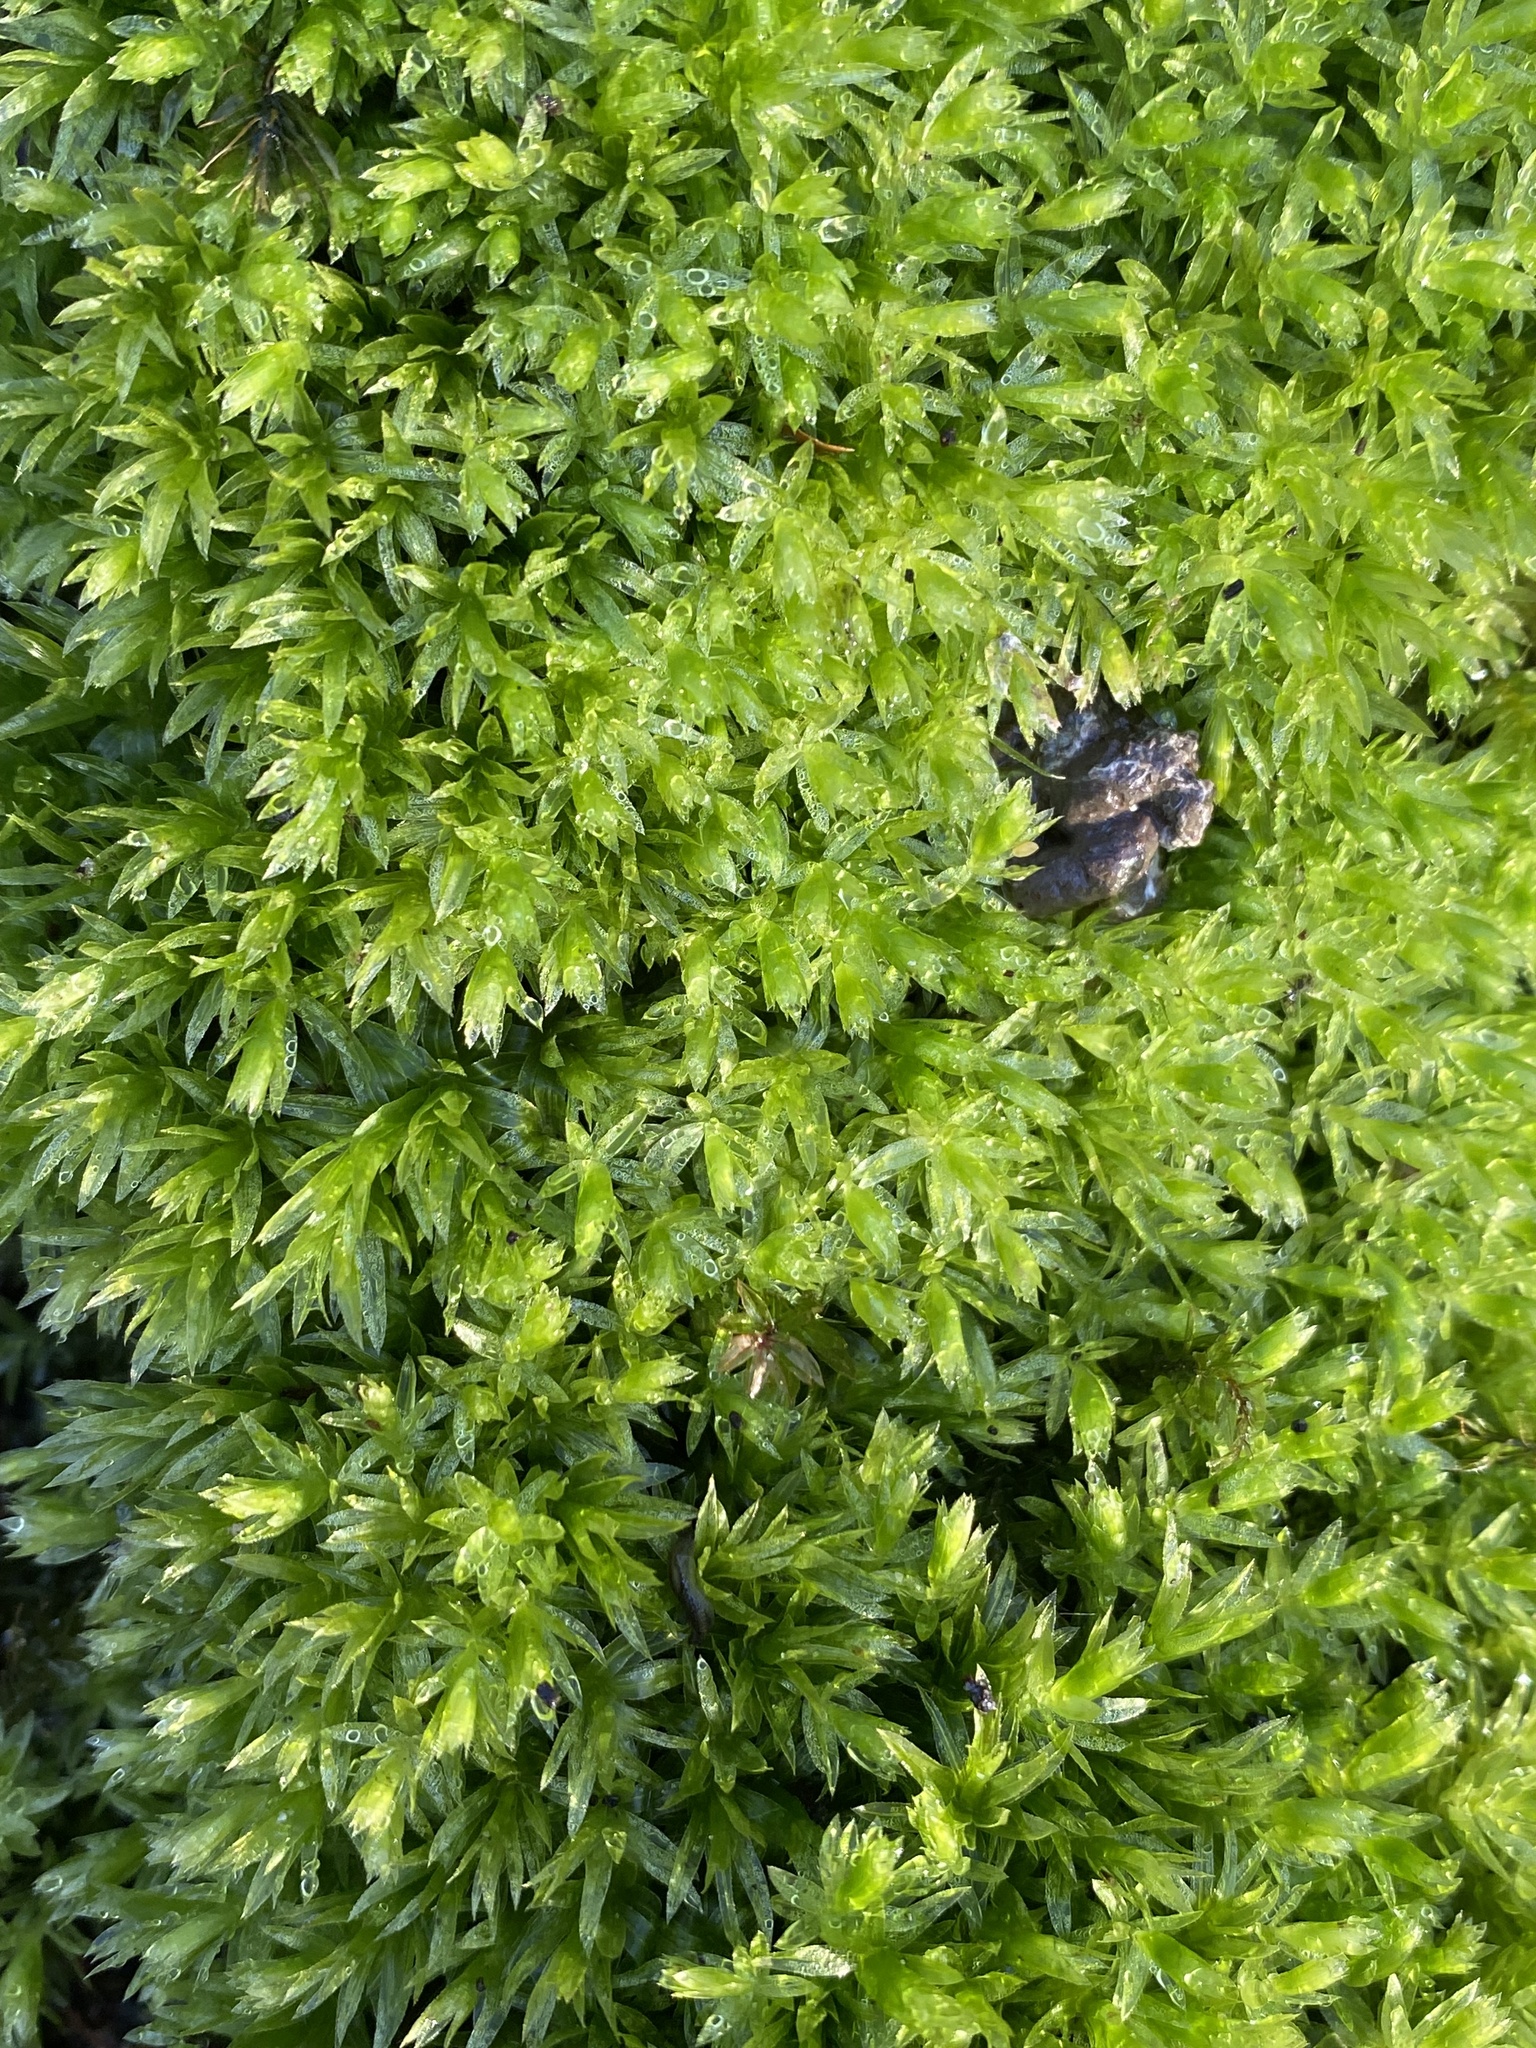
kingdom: Plantae
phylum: Bryophyta
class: Bryopsida
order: Bryales
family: Mniaceae
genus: Mnium
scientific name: Mnium hornum
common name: Swan's-neck leafy moss
